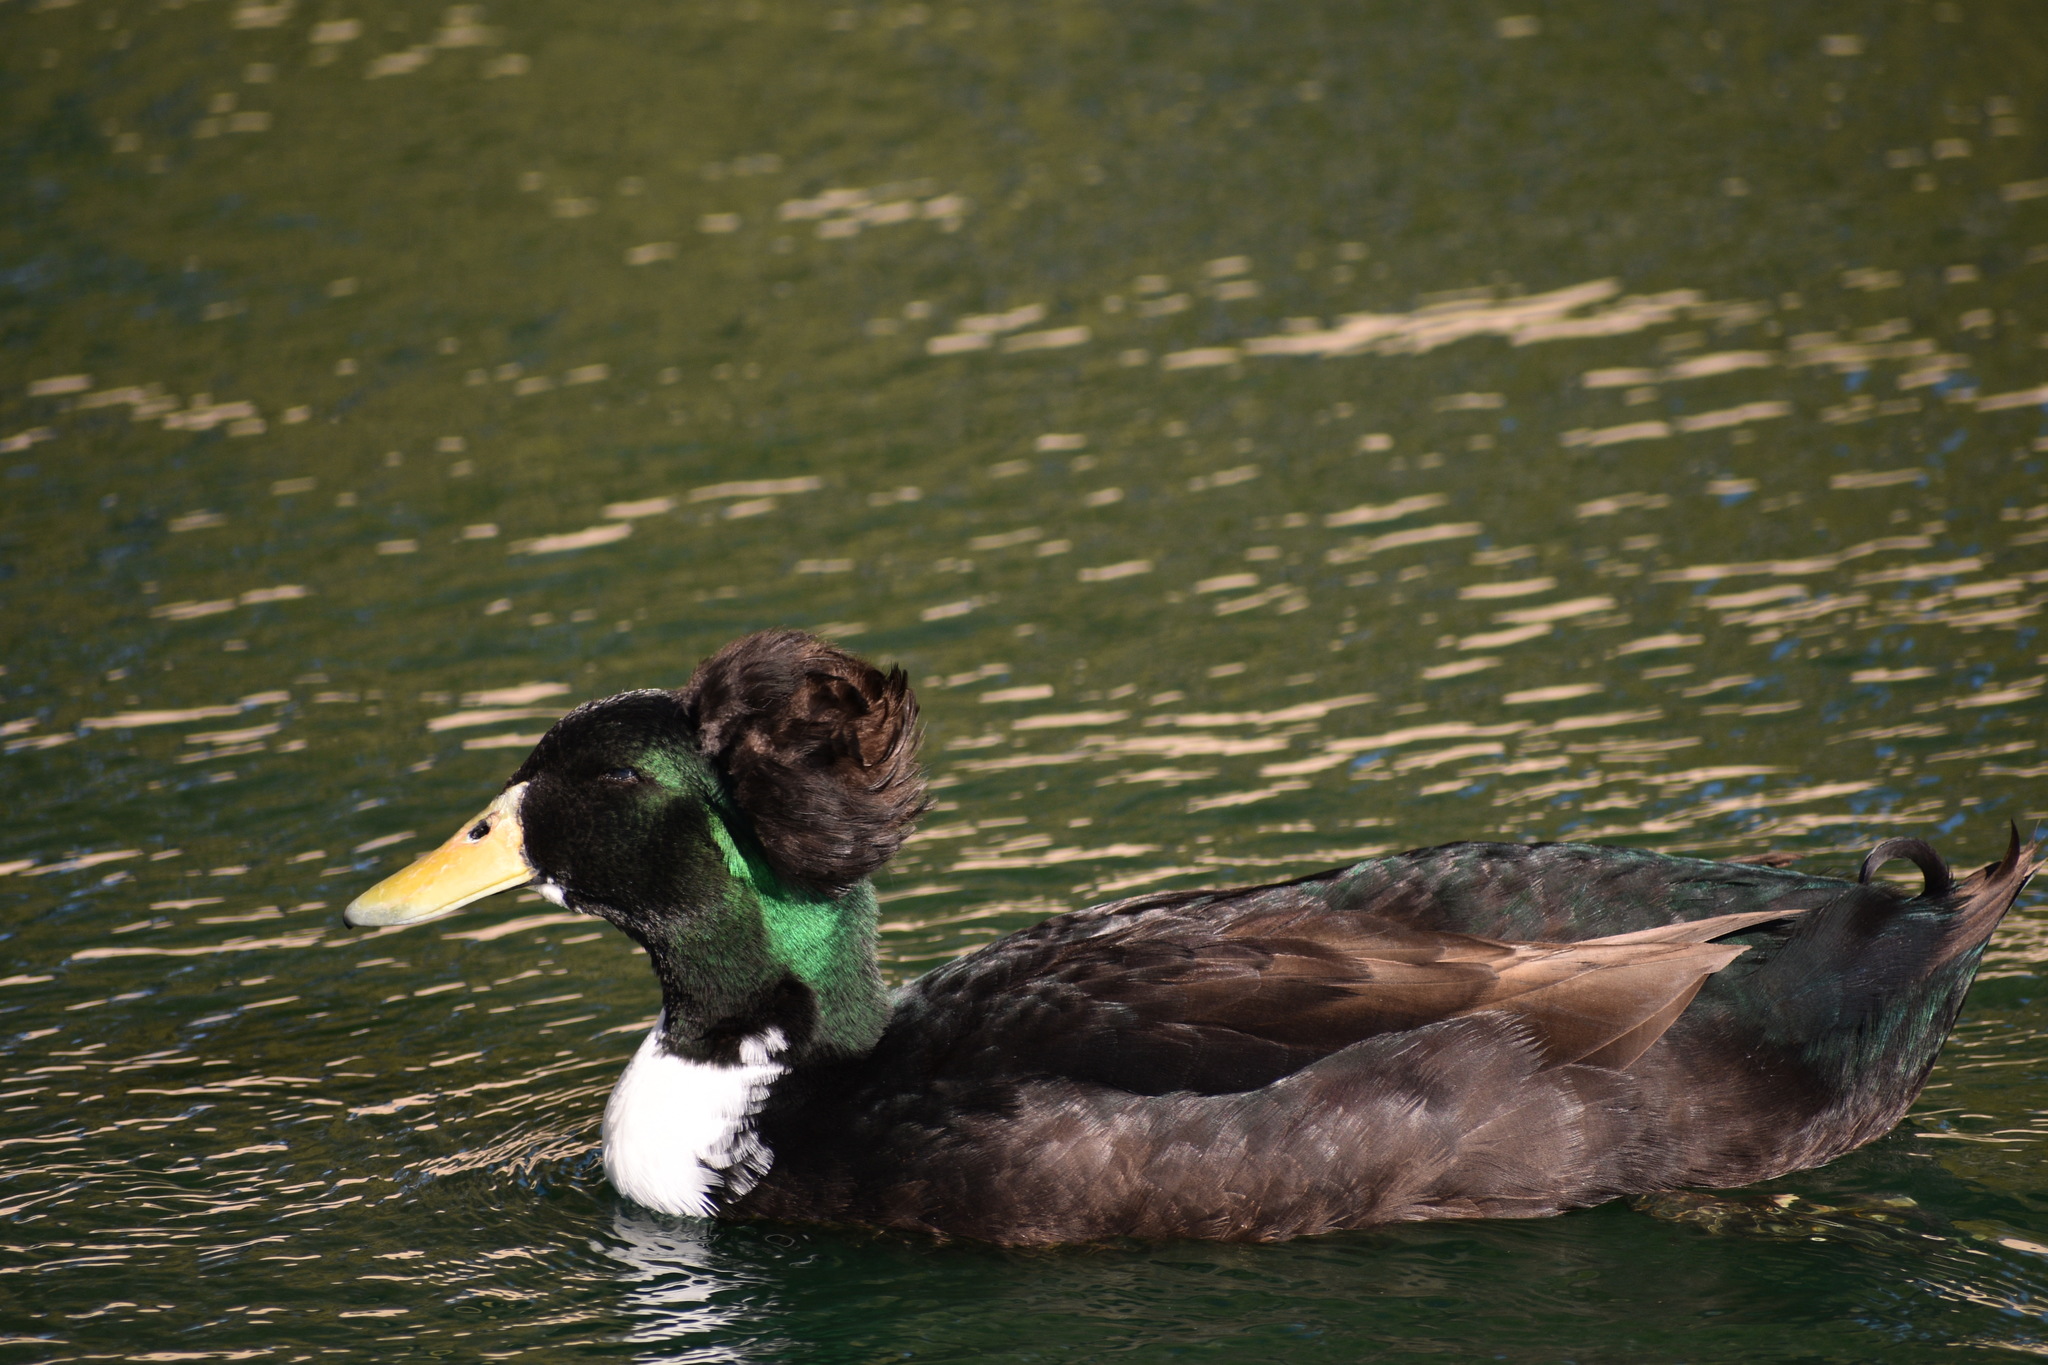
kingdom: Animalia
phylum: Chordata
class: Aves
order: Anseriformes
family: Anatidae
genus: Anas
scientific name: Anas platyrhynchos
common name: Mallard
